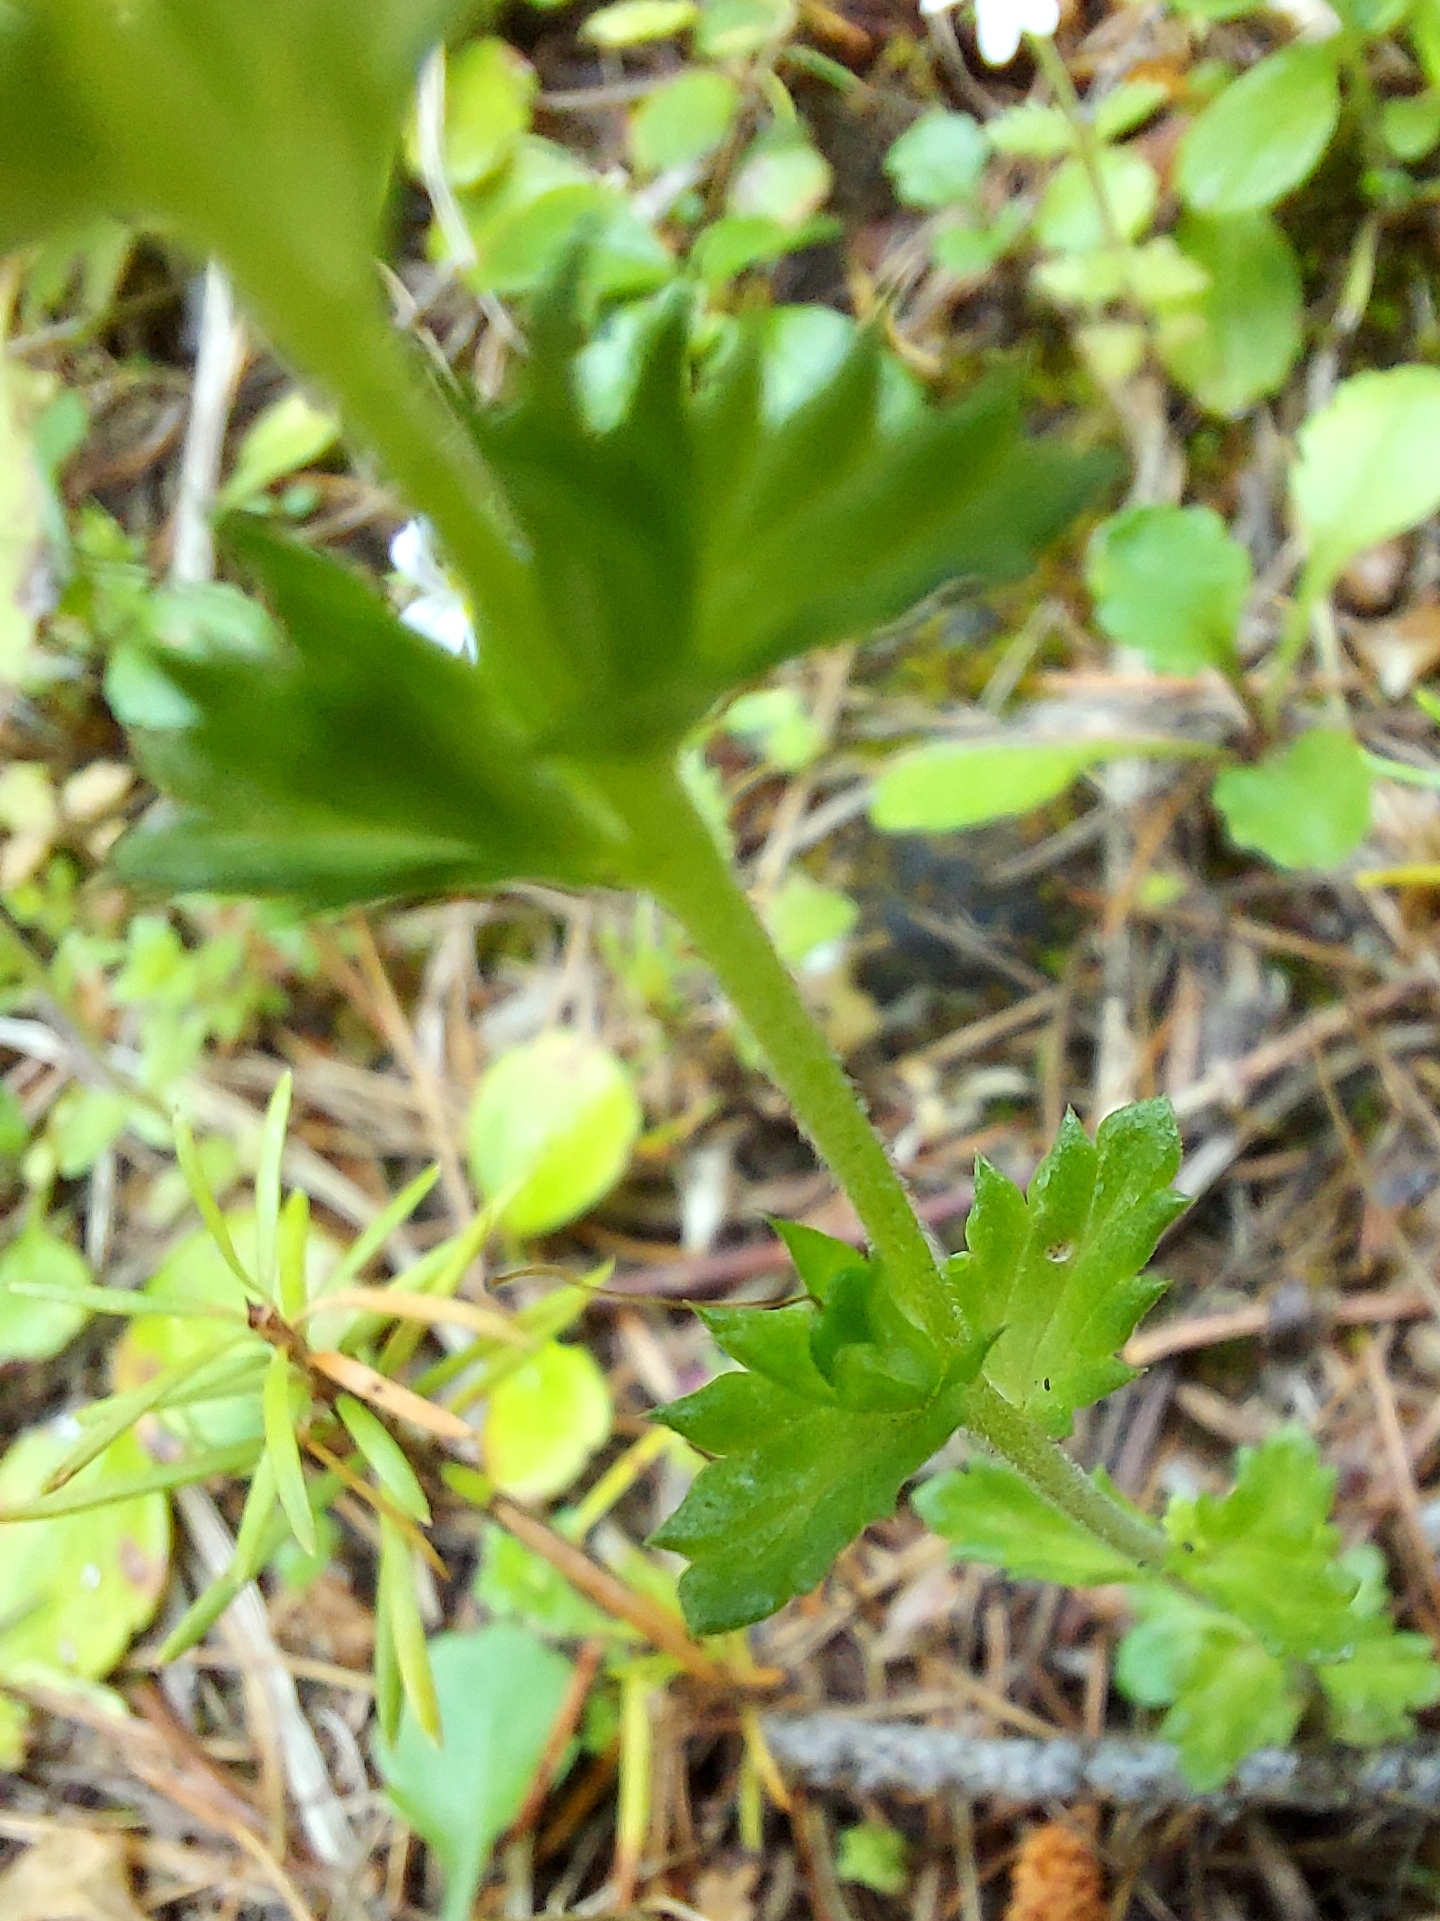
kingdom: Plantae
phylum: Tracheophyta
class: Magnoliopsida
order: Lamiales
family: Orobanchaceae
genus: Euphrasia
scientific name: Euphrasia nemorosa
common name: Common eyebright
